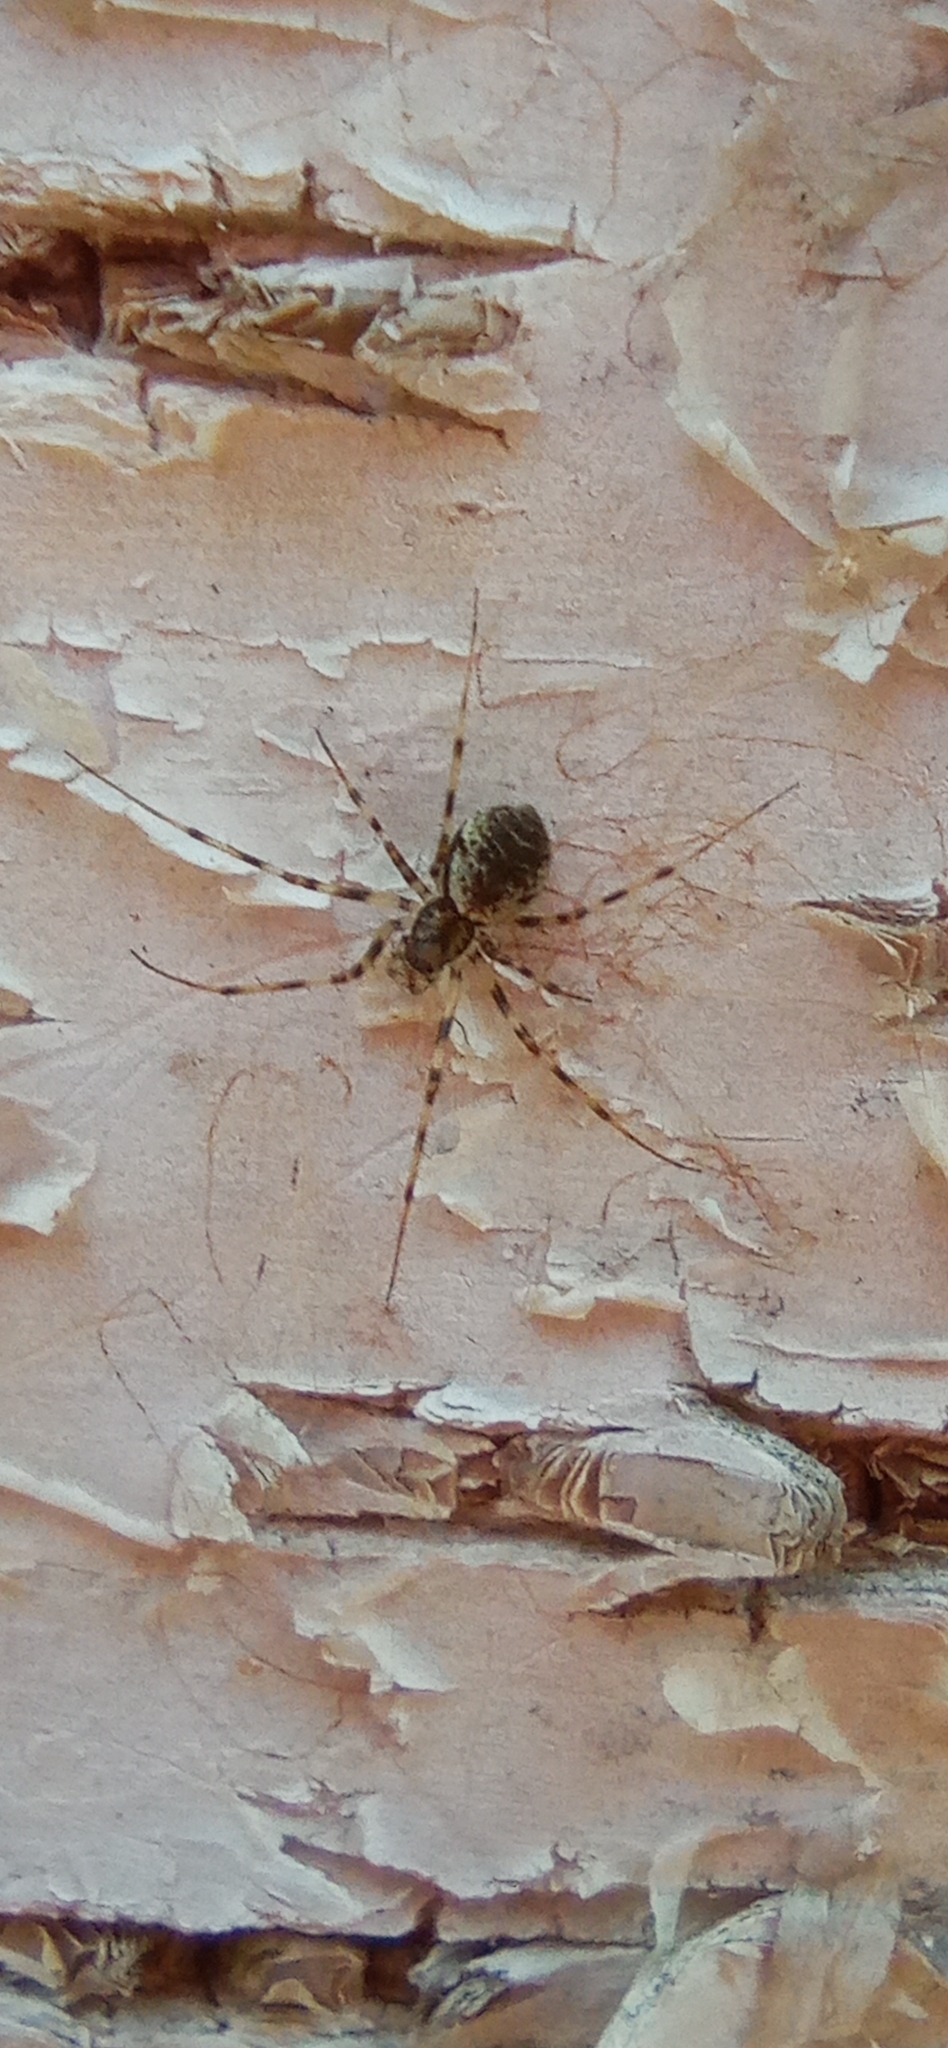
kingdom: Animalia
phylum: Arthropoda
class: Arachnida
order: Araneae
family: Linyphiidae
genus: Drapetisca
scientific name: Drapetisca socialis
